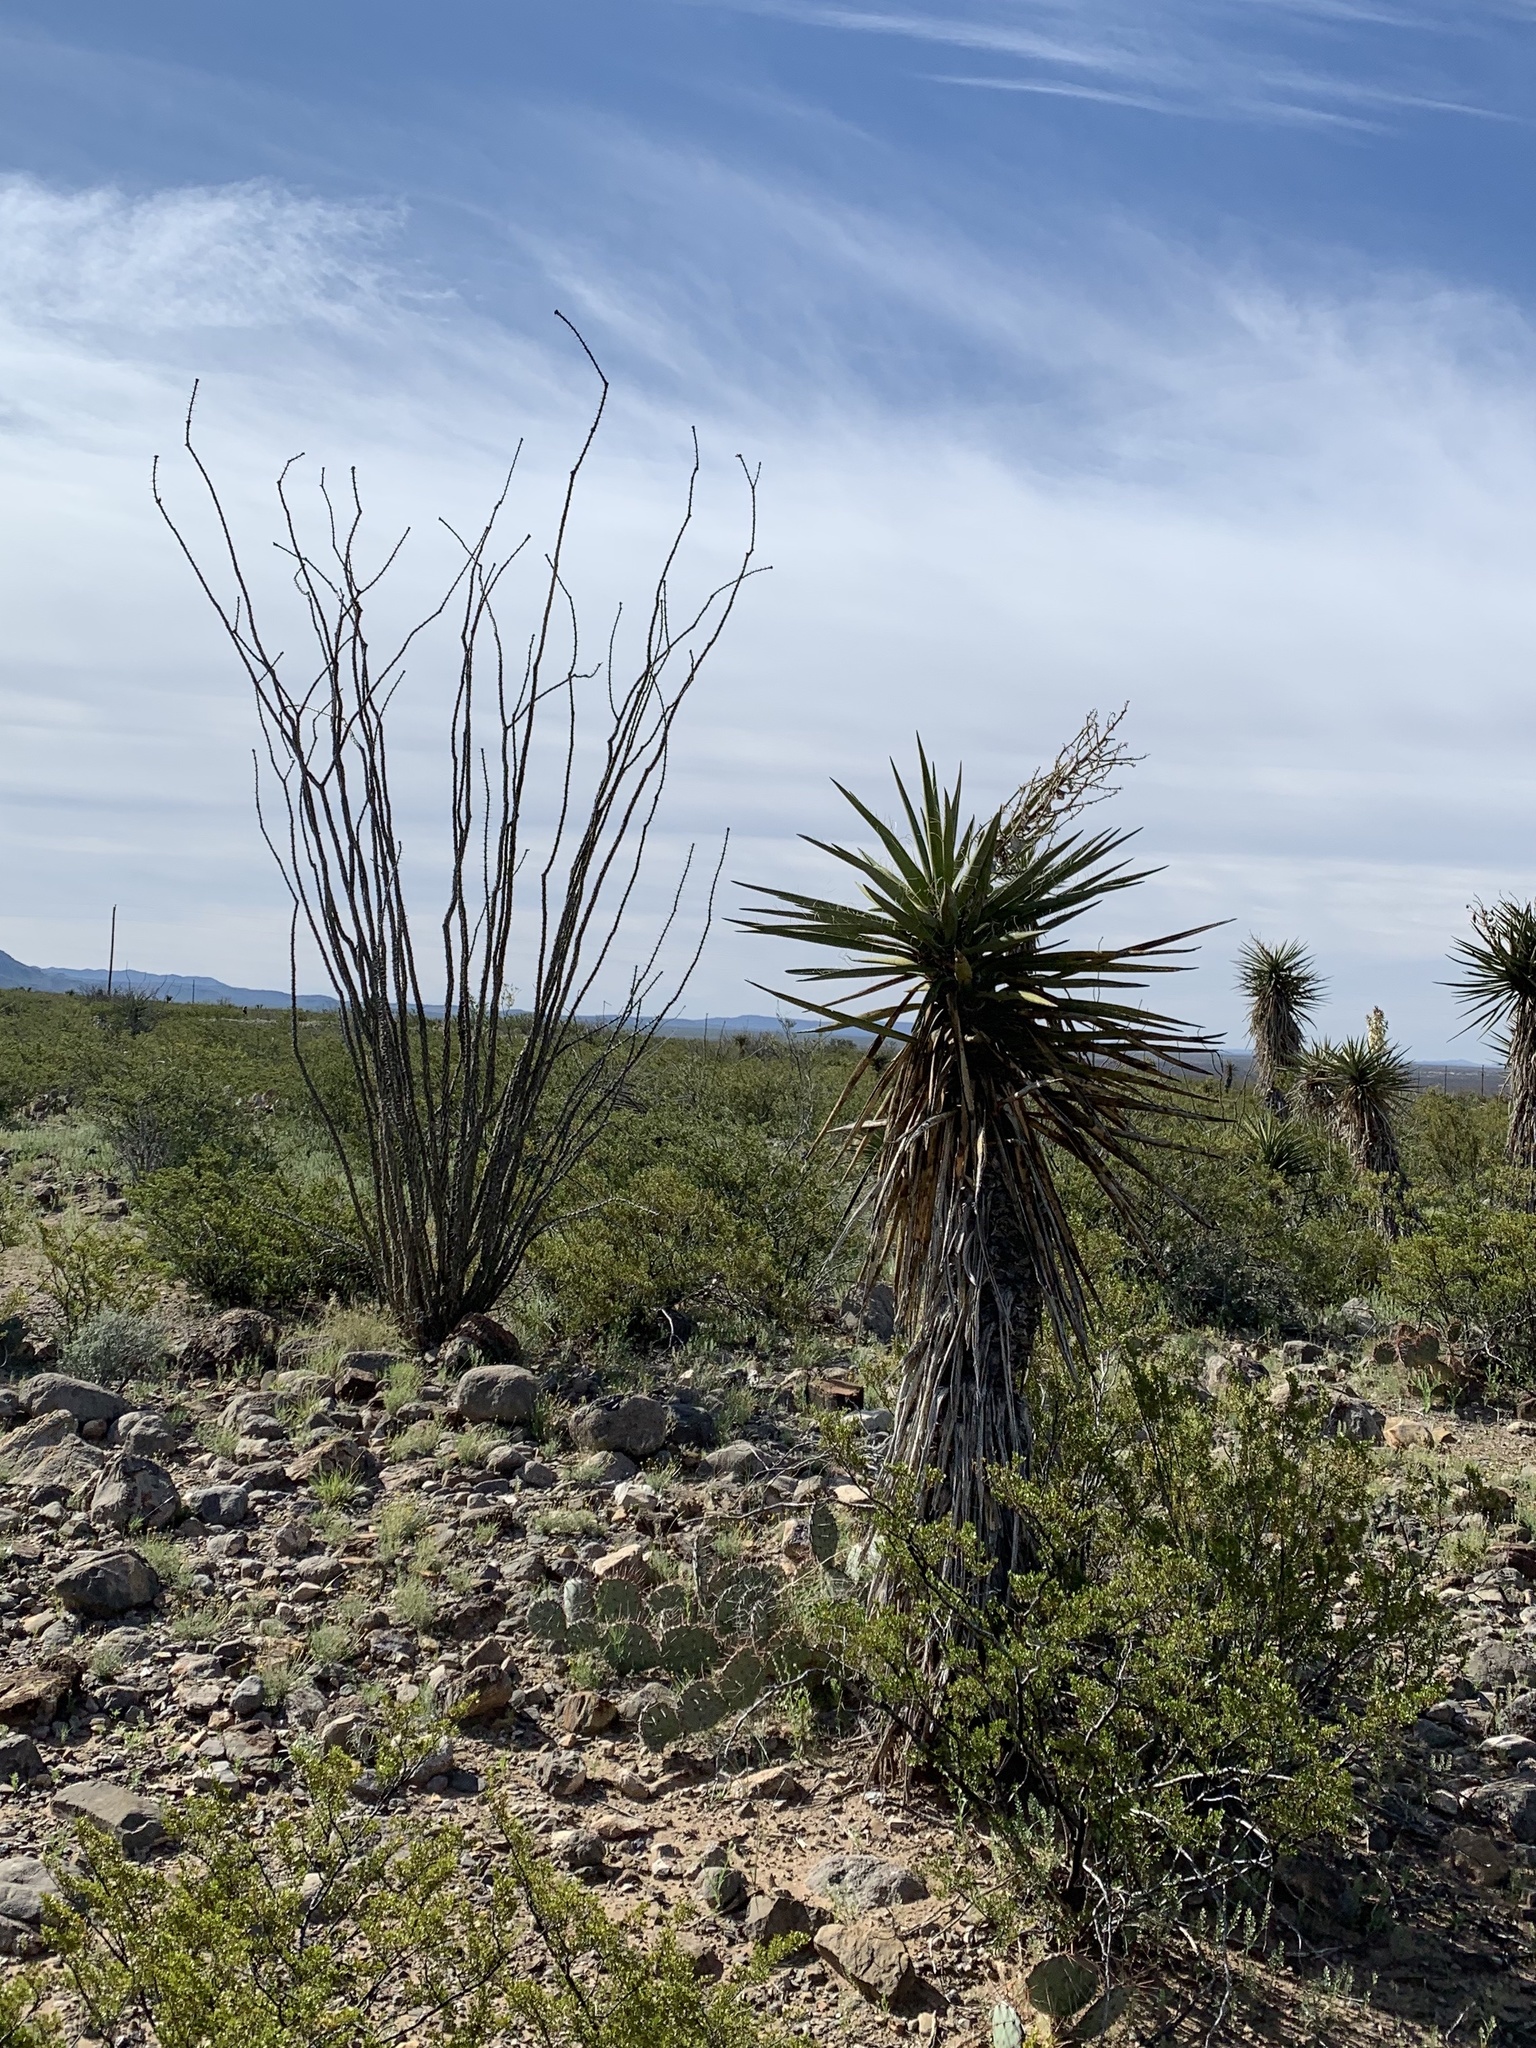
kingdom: Plantae
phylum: Tracheophyta
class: Liliopsida
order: Asparagales
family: Asparagaceae
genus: Yucca
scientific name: Yucca treculiana
